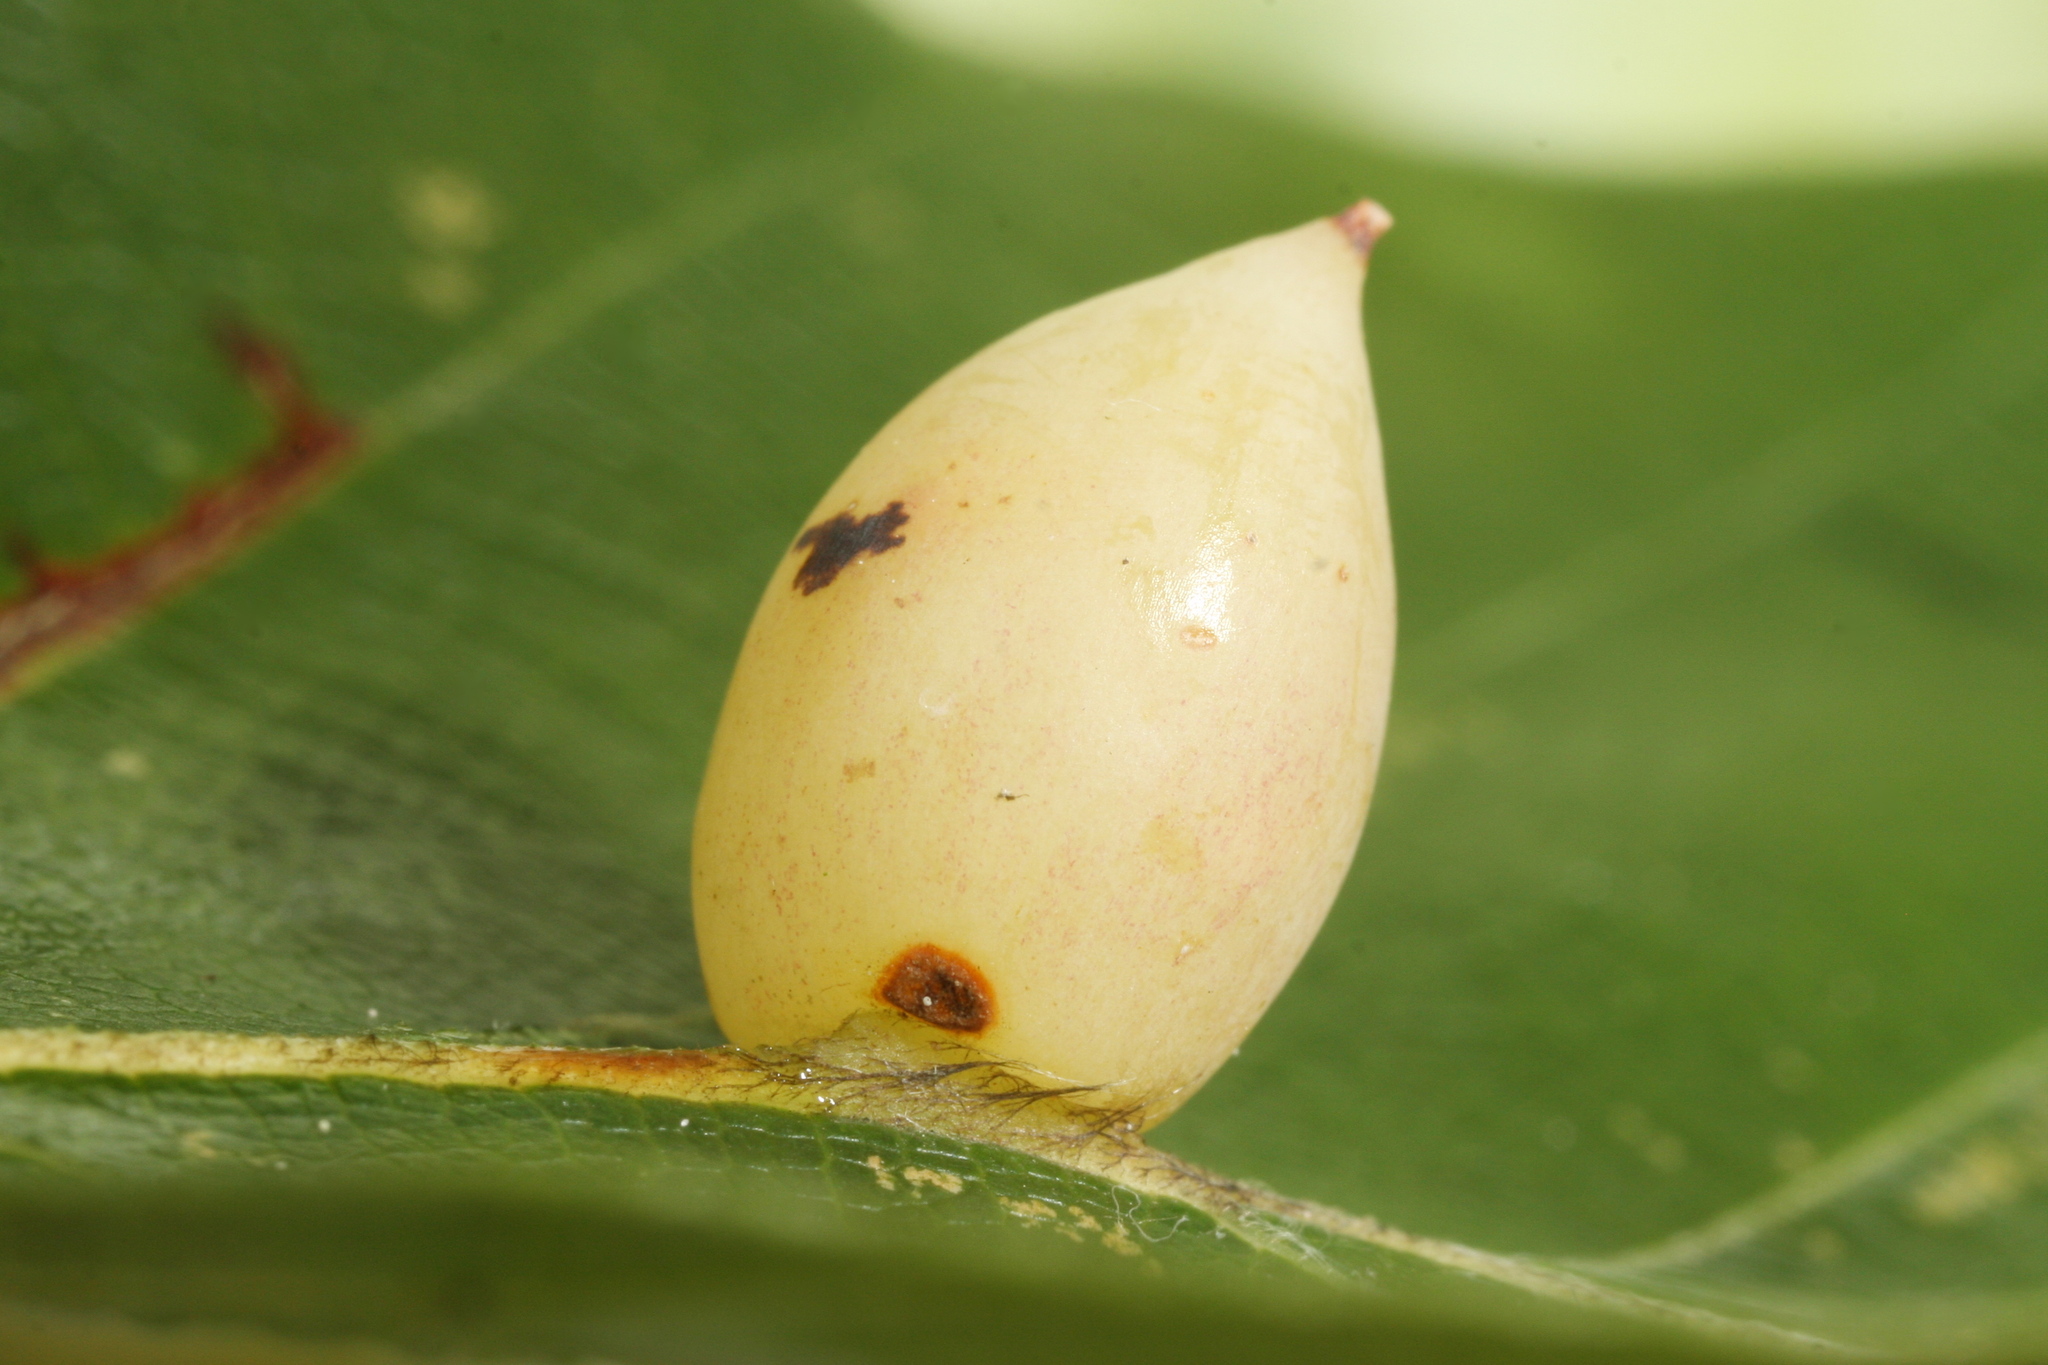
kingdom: Animalia
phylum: Arthropoda
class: Insecta
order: Diptera
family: Cecidomyiidae
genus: Mikiola
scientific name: Mikiola fagi
